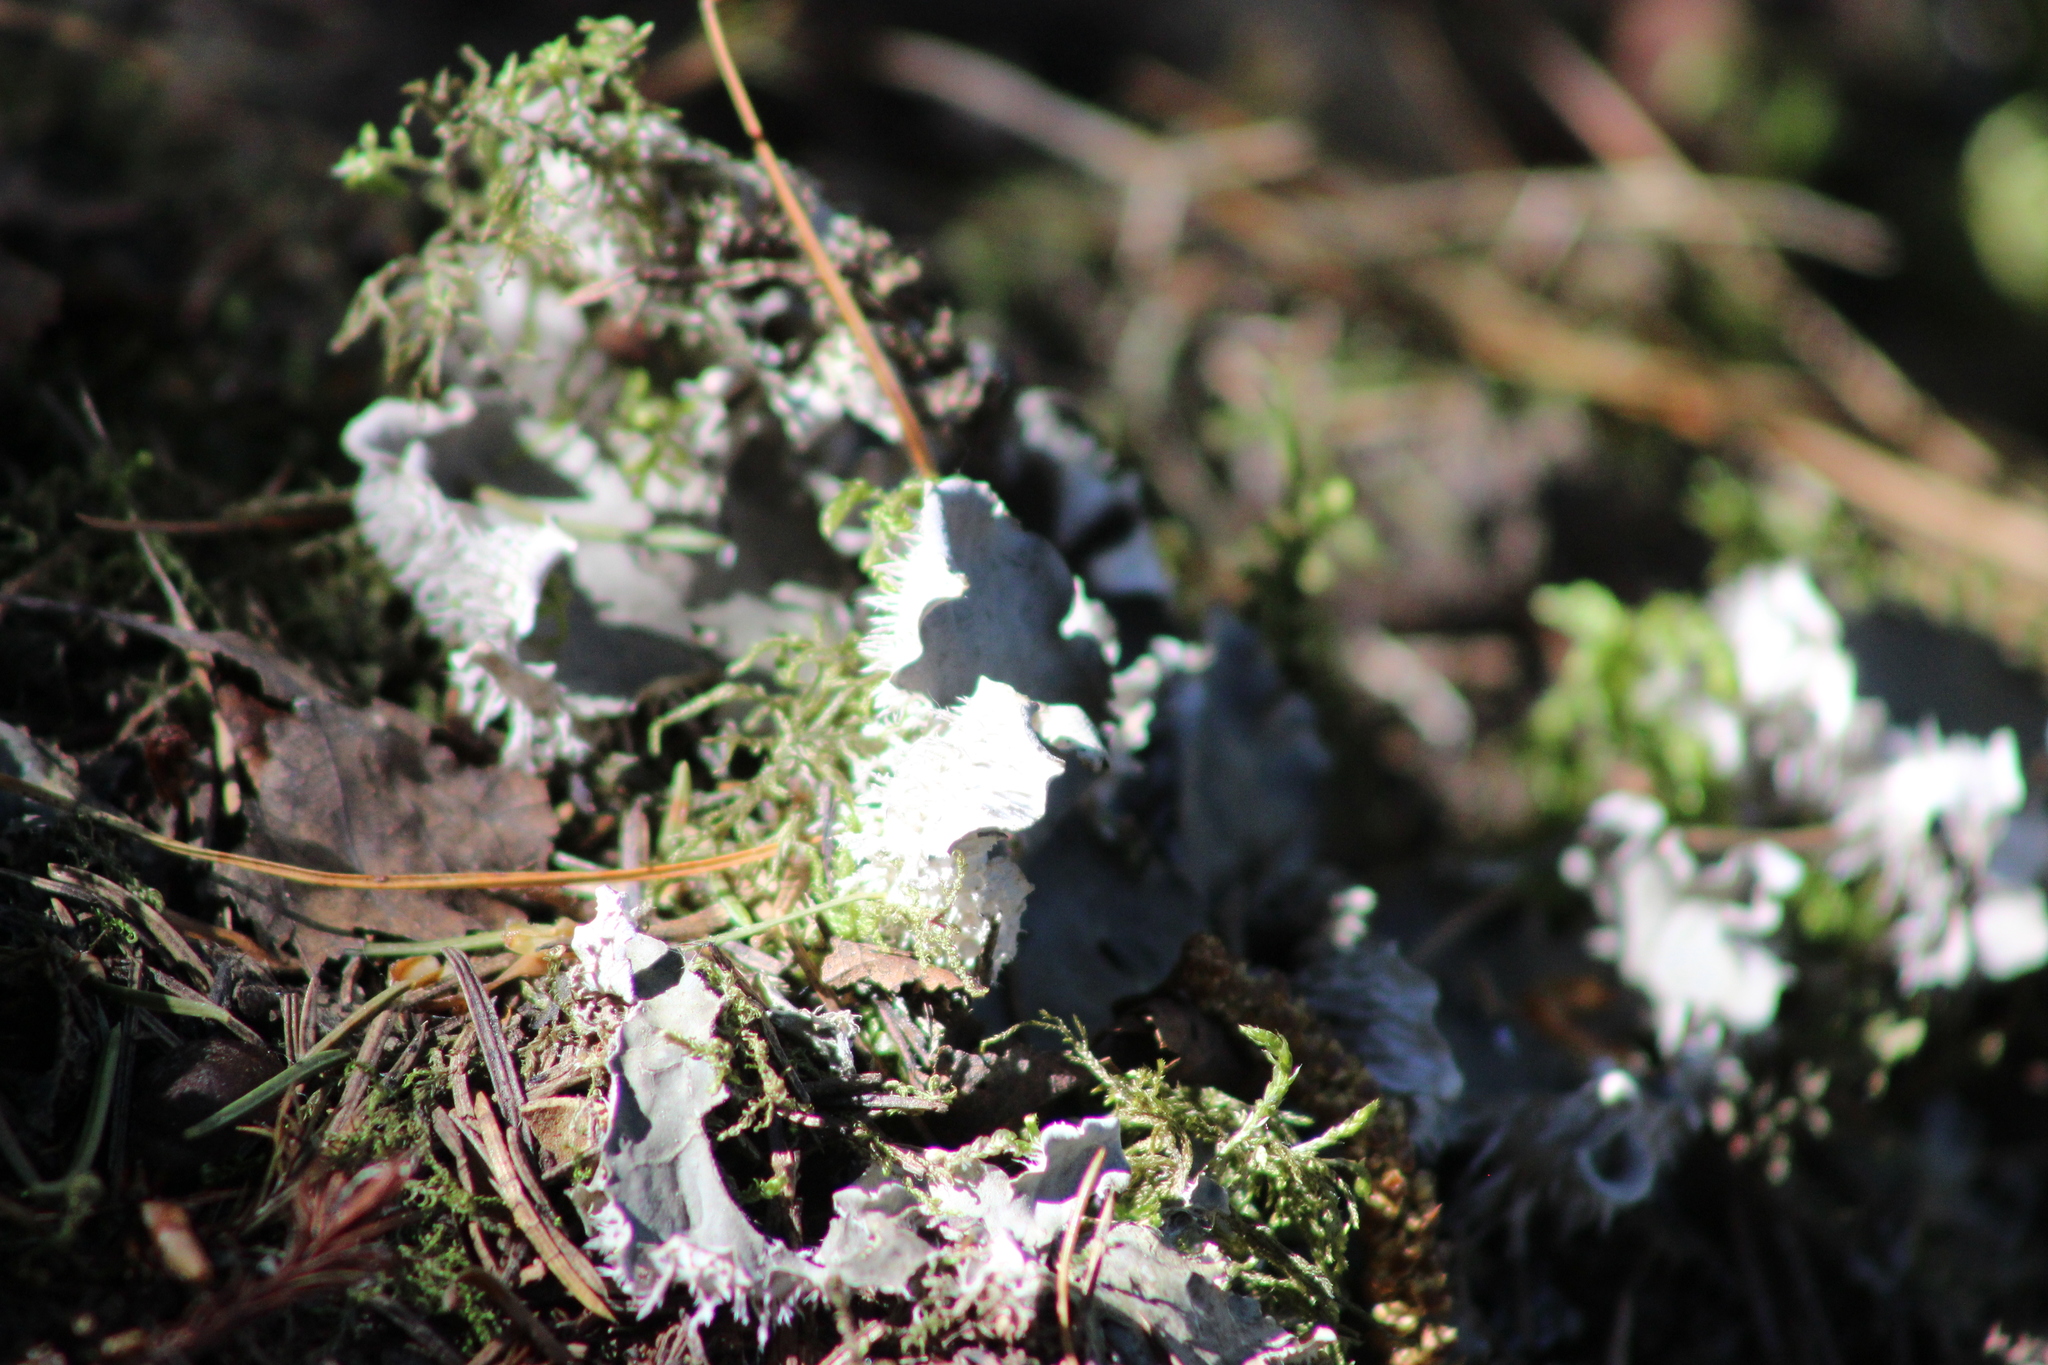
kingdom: Fungi
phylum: Ascomycota
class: Lecanoromycetes
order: Peltigerales
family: Peltigeraceae
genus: Peltigera
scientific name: Peltigera polydactylon
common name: Many-fruited pelt lichen
